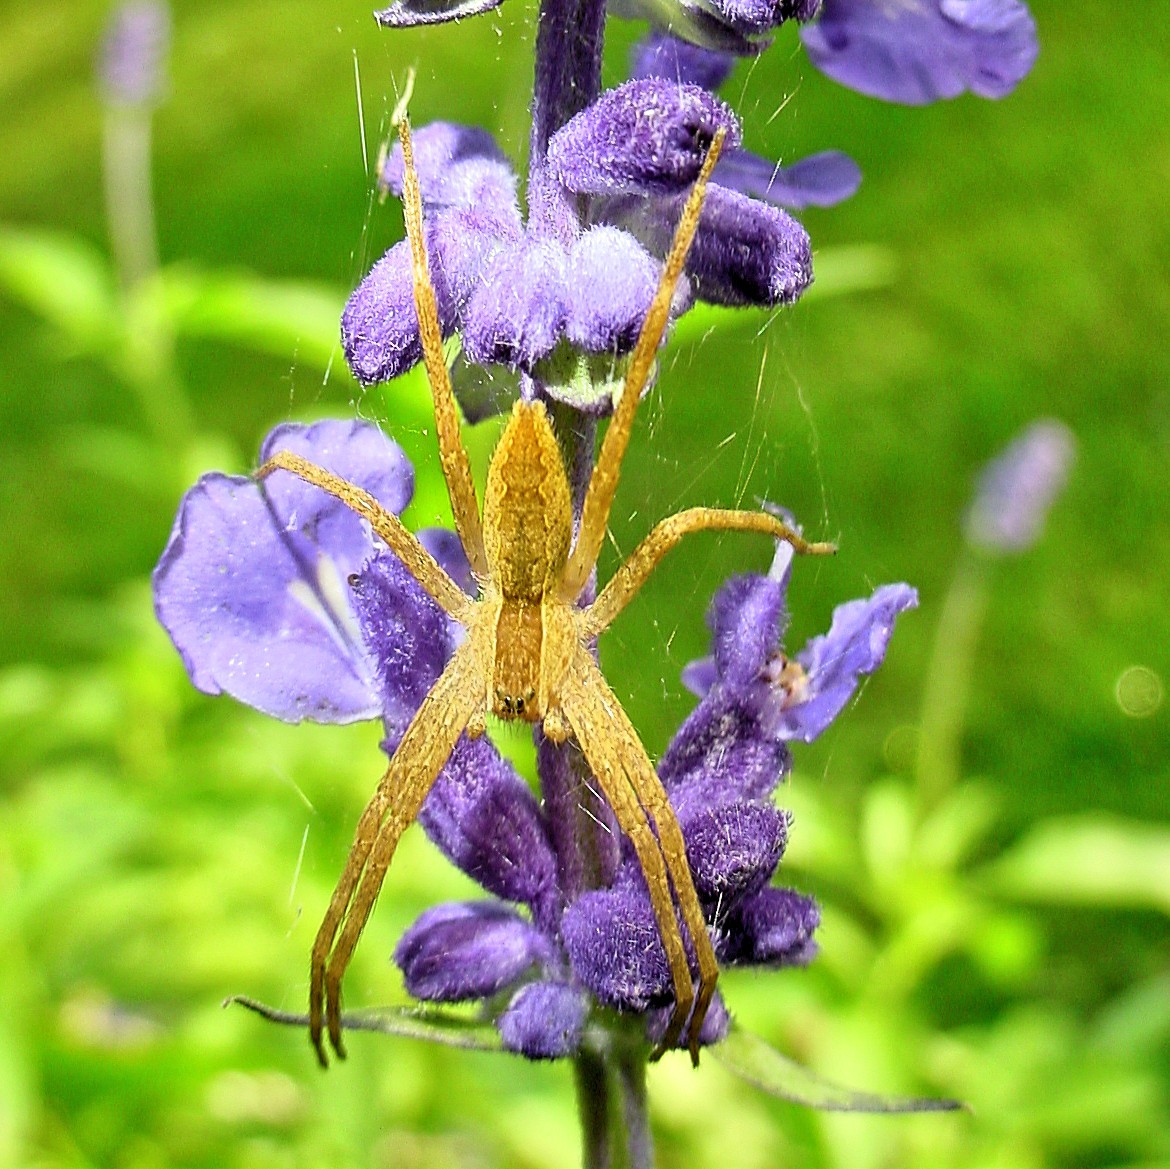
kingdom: Animalia
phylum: Arthropoda
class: Arachnida
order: Araneae
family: Pisauridae
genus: Pisaurina
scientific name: Pisaurina mira
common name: American nursery web spider
